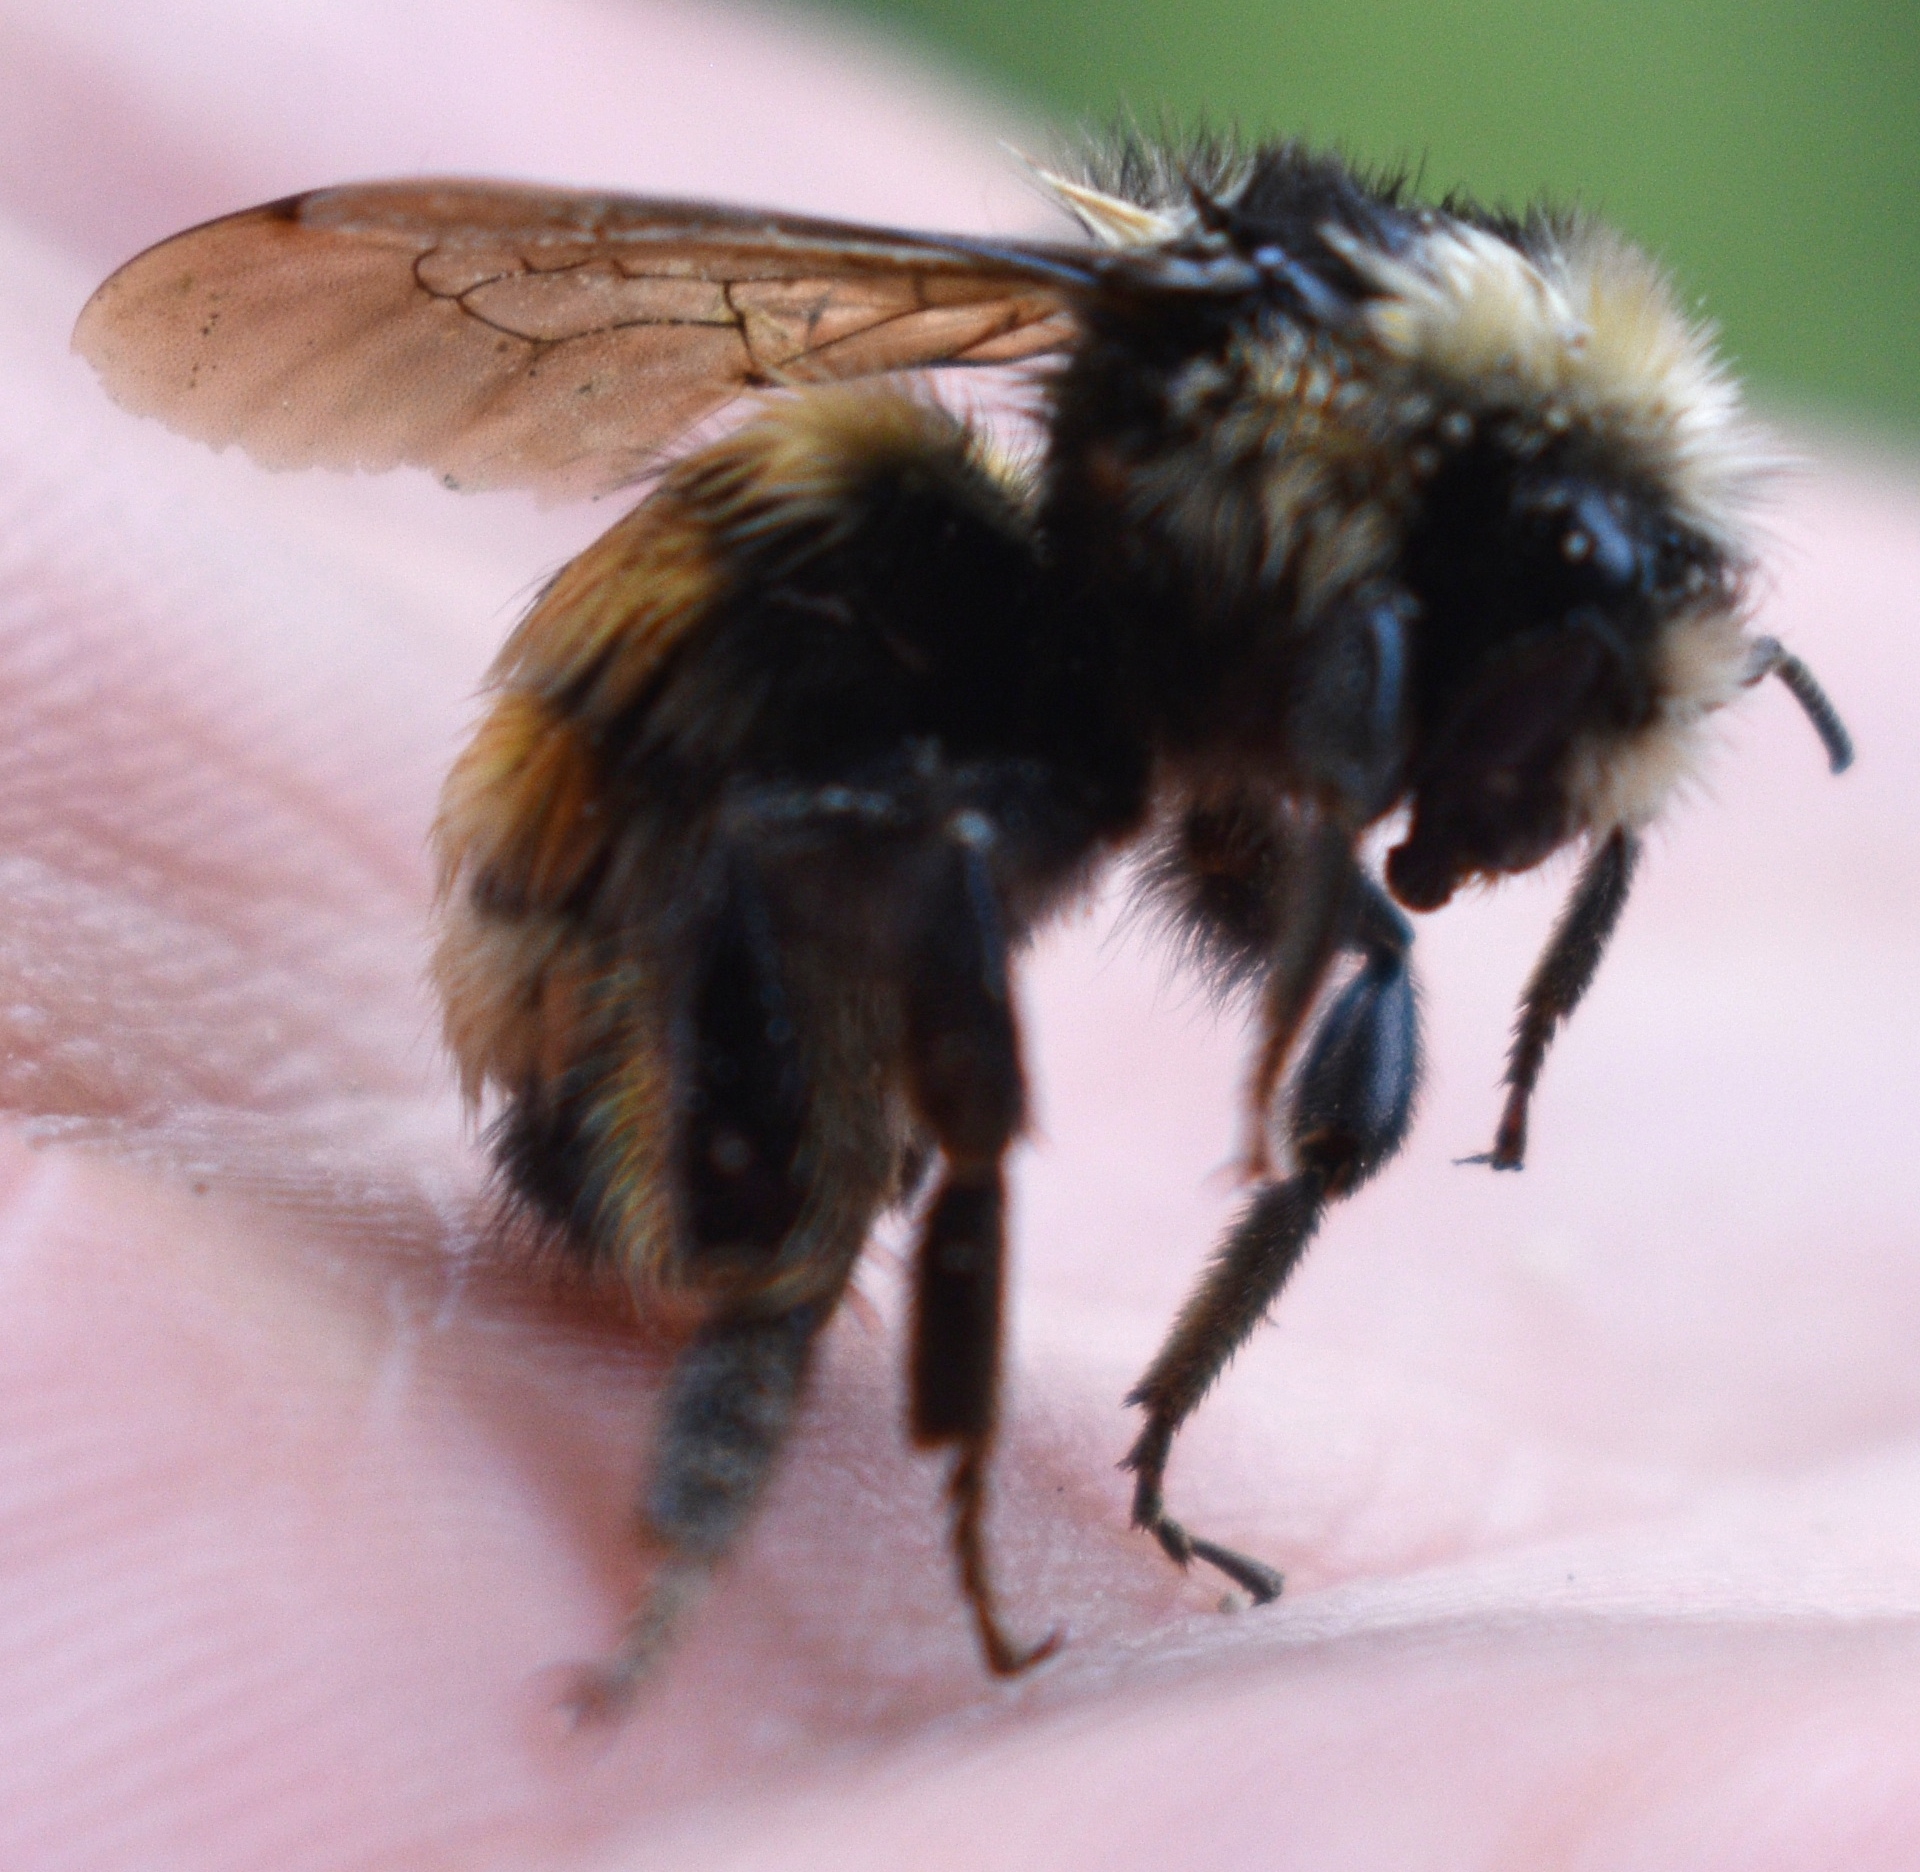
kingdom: Animalia
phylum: Arthropoda
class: Insecta
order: Hymenoptera
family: Apidae
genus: Bombus
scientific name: Bombus appositus
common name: White-shouldered bumble bee
